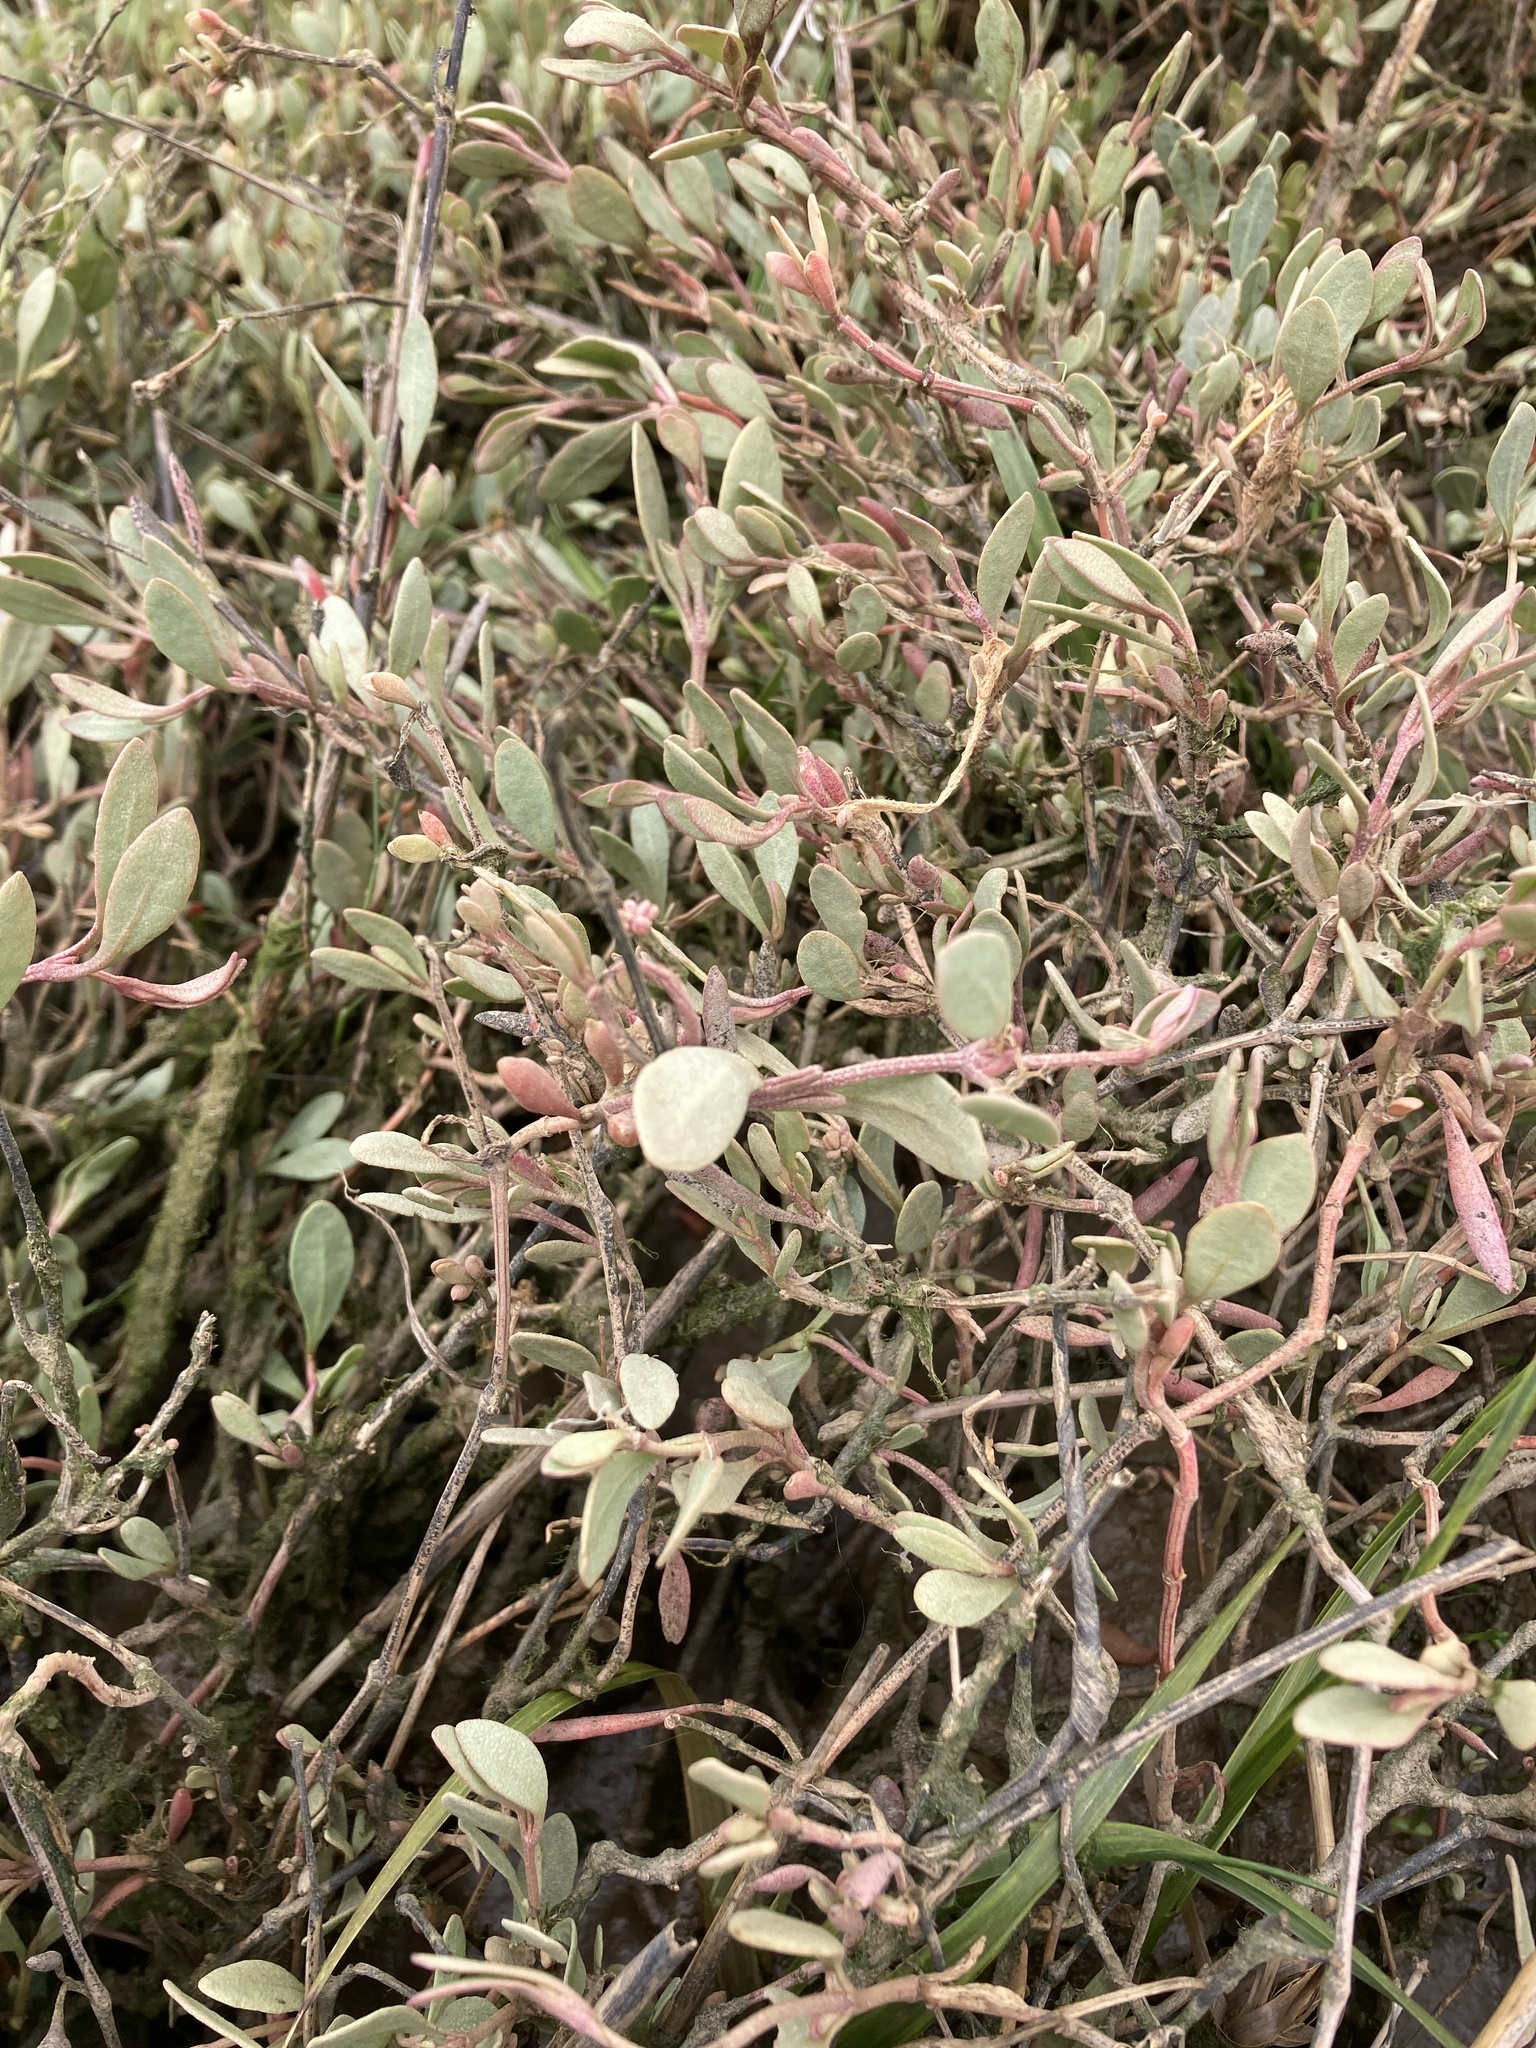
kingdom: Plantae
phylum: Tracheophyta
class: Magnoliopsida
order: Caryophyllales
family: Amaranthaceae
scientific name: Amaranthaceae
